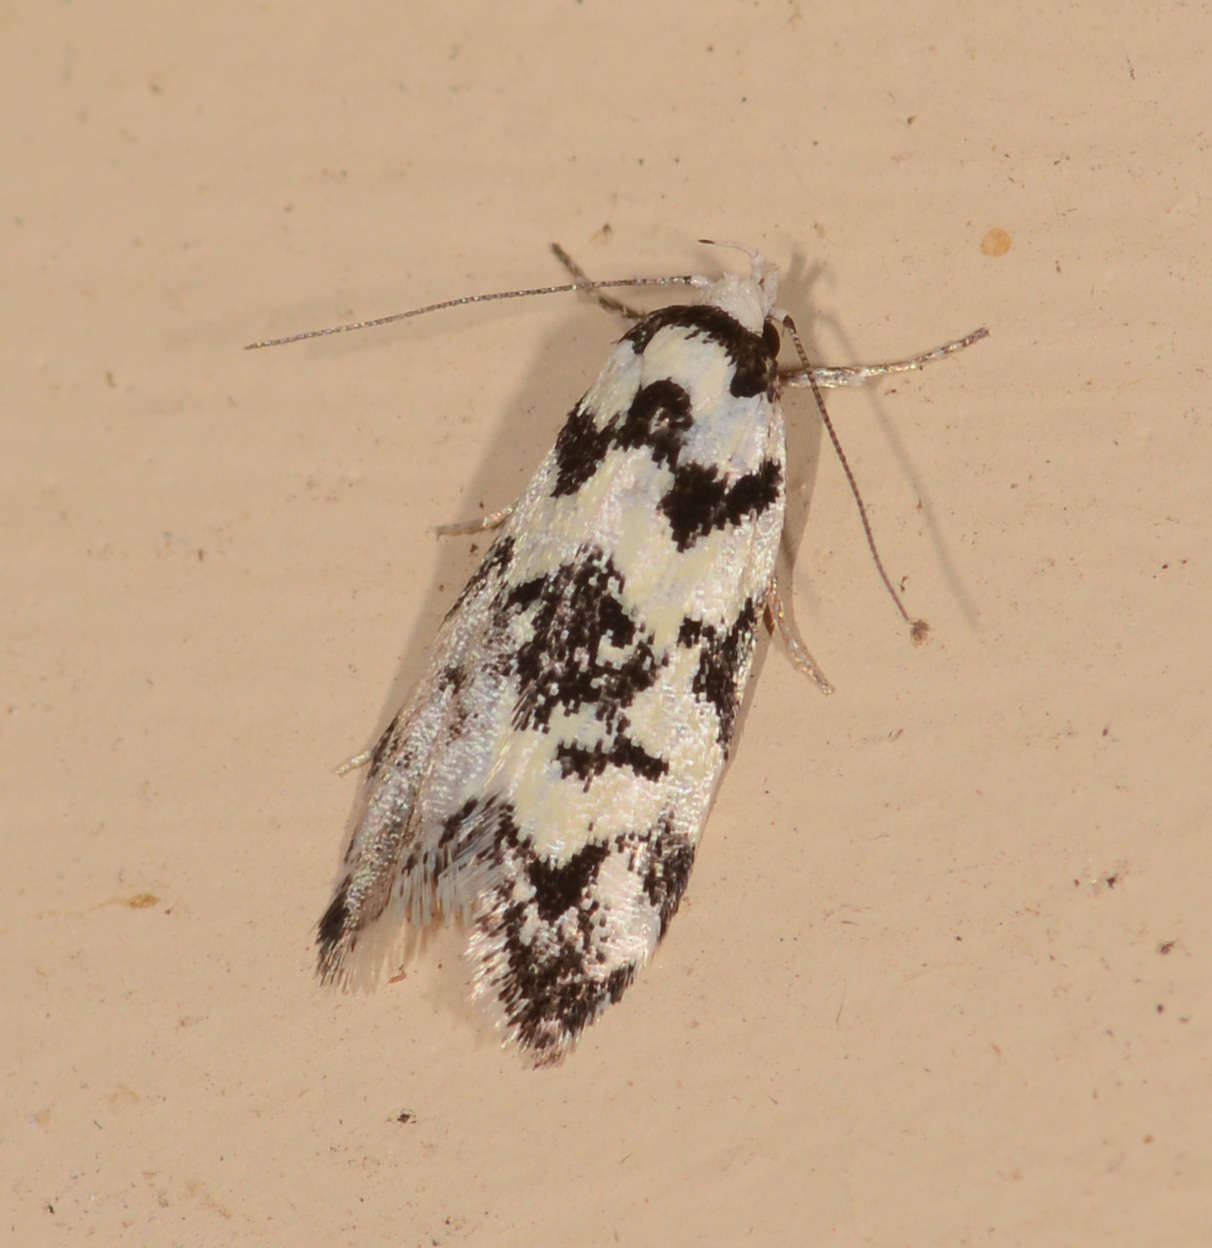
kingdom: Animalia
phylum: Arthropoda
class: Insecta
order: Lepidoptera
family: Oecophoridae
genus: Cosmaresta
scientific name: Cosmaresta hyphanta
